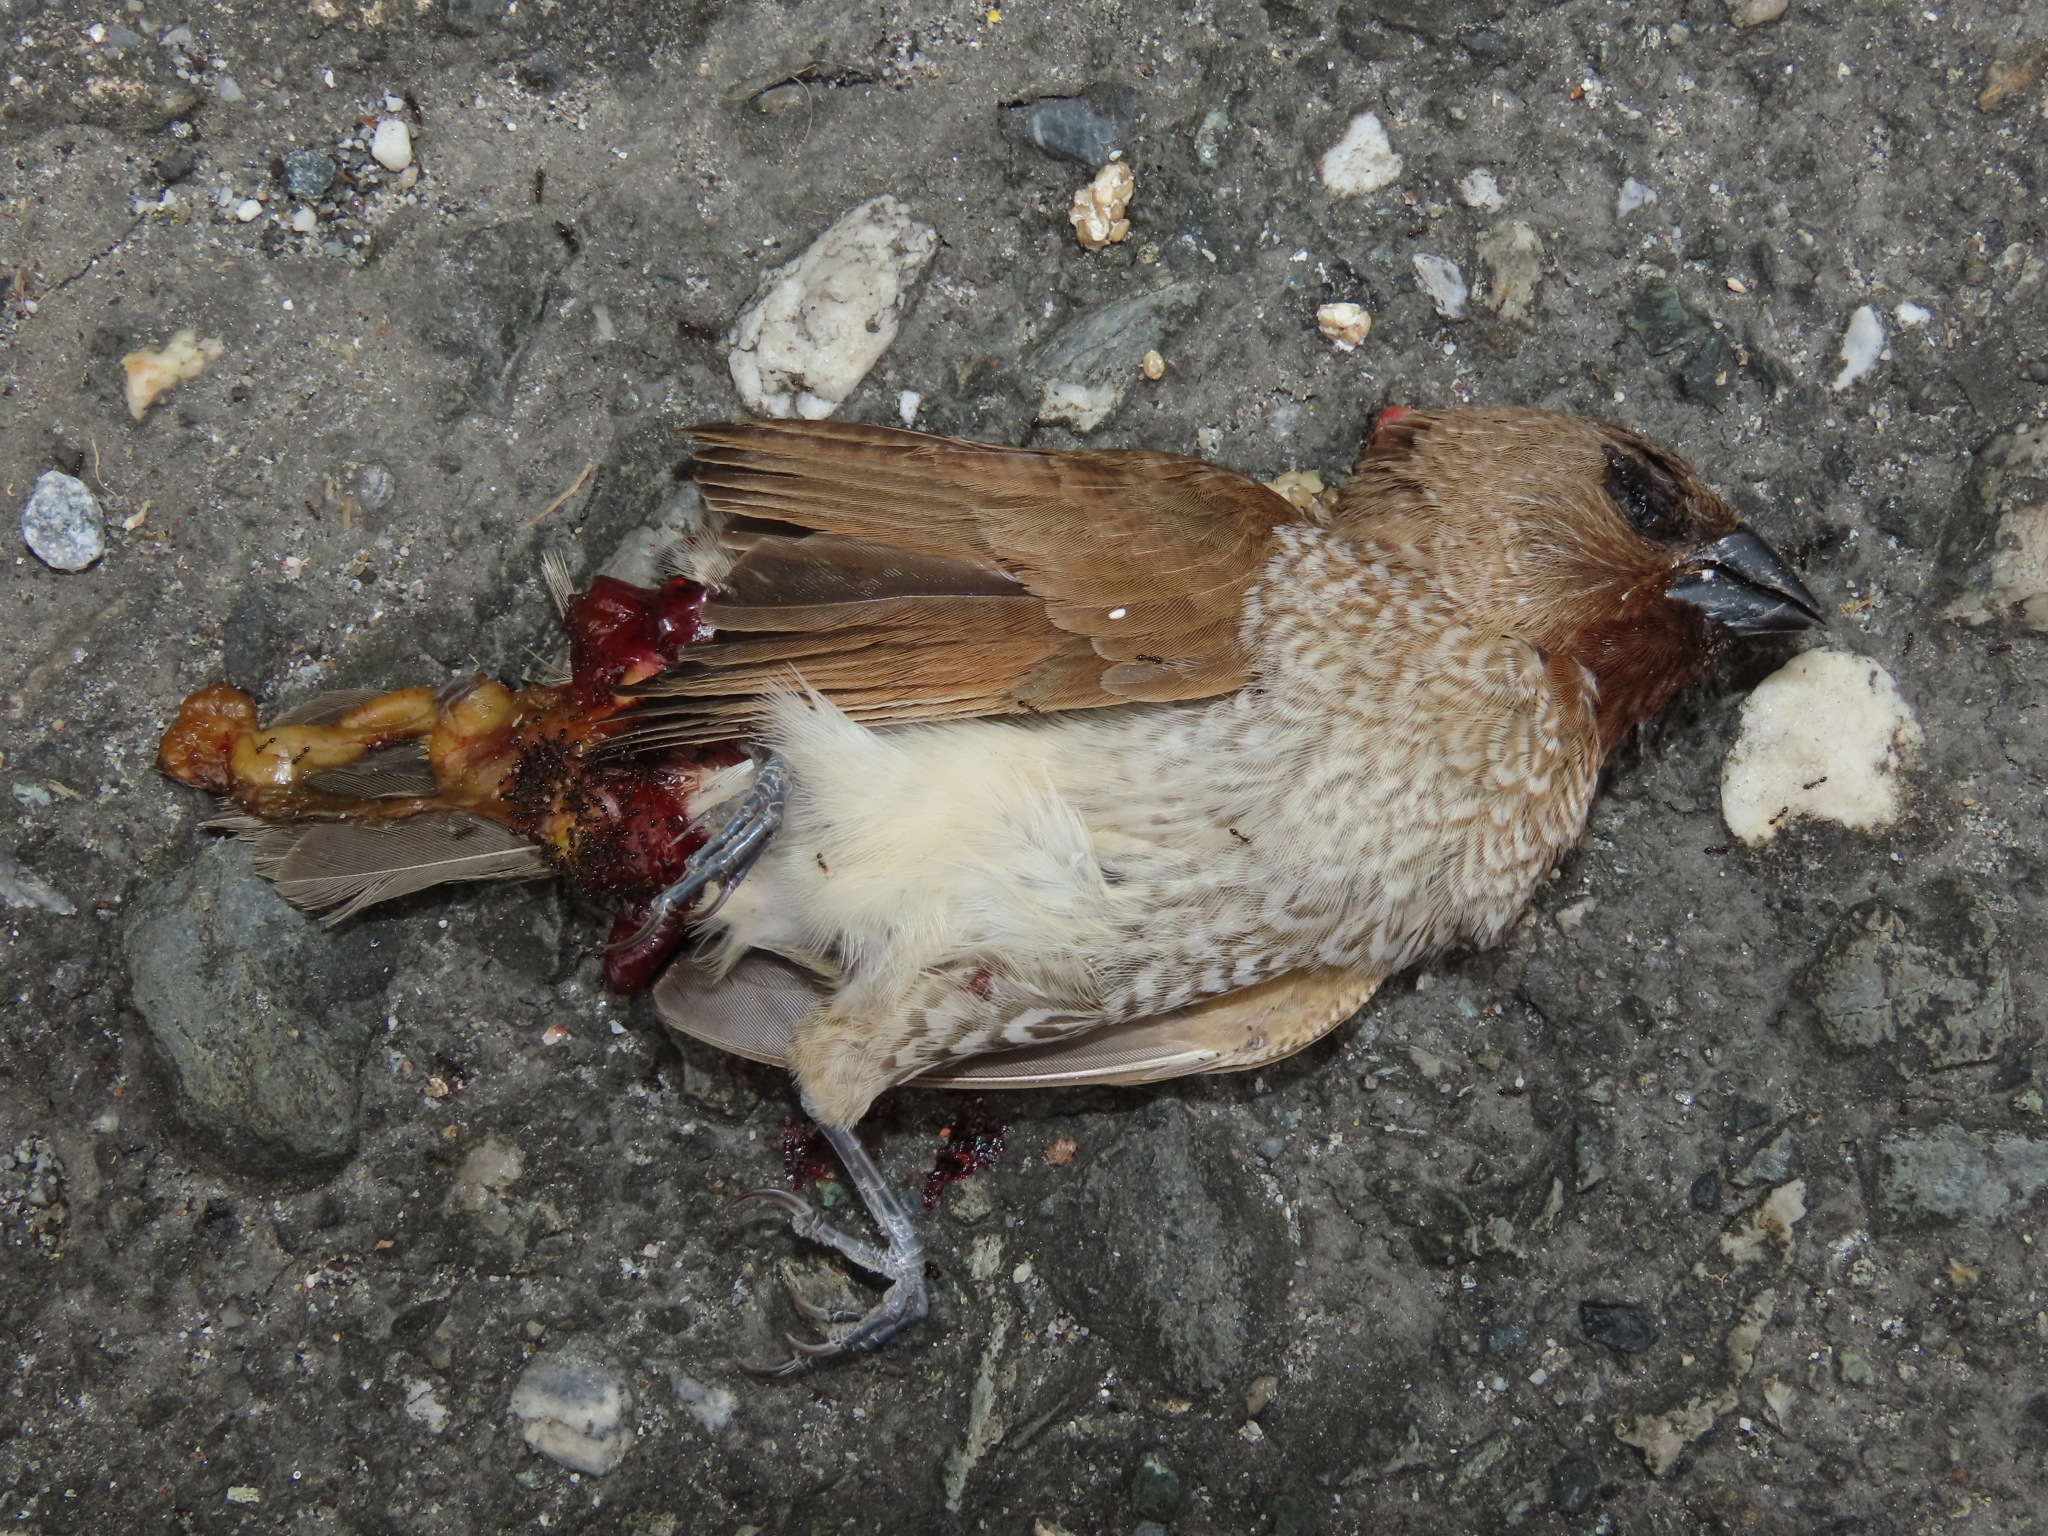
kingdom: Animalia
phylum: Chordata
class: Aves
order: Passeriformes
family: Estrildidae
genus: Lonchura
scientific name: Lonchura punctulata
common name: Scaly-breasted munia
